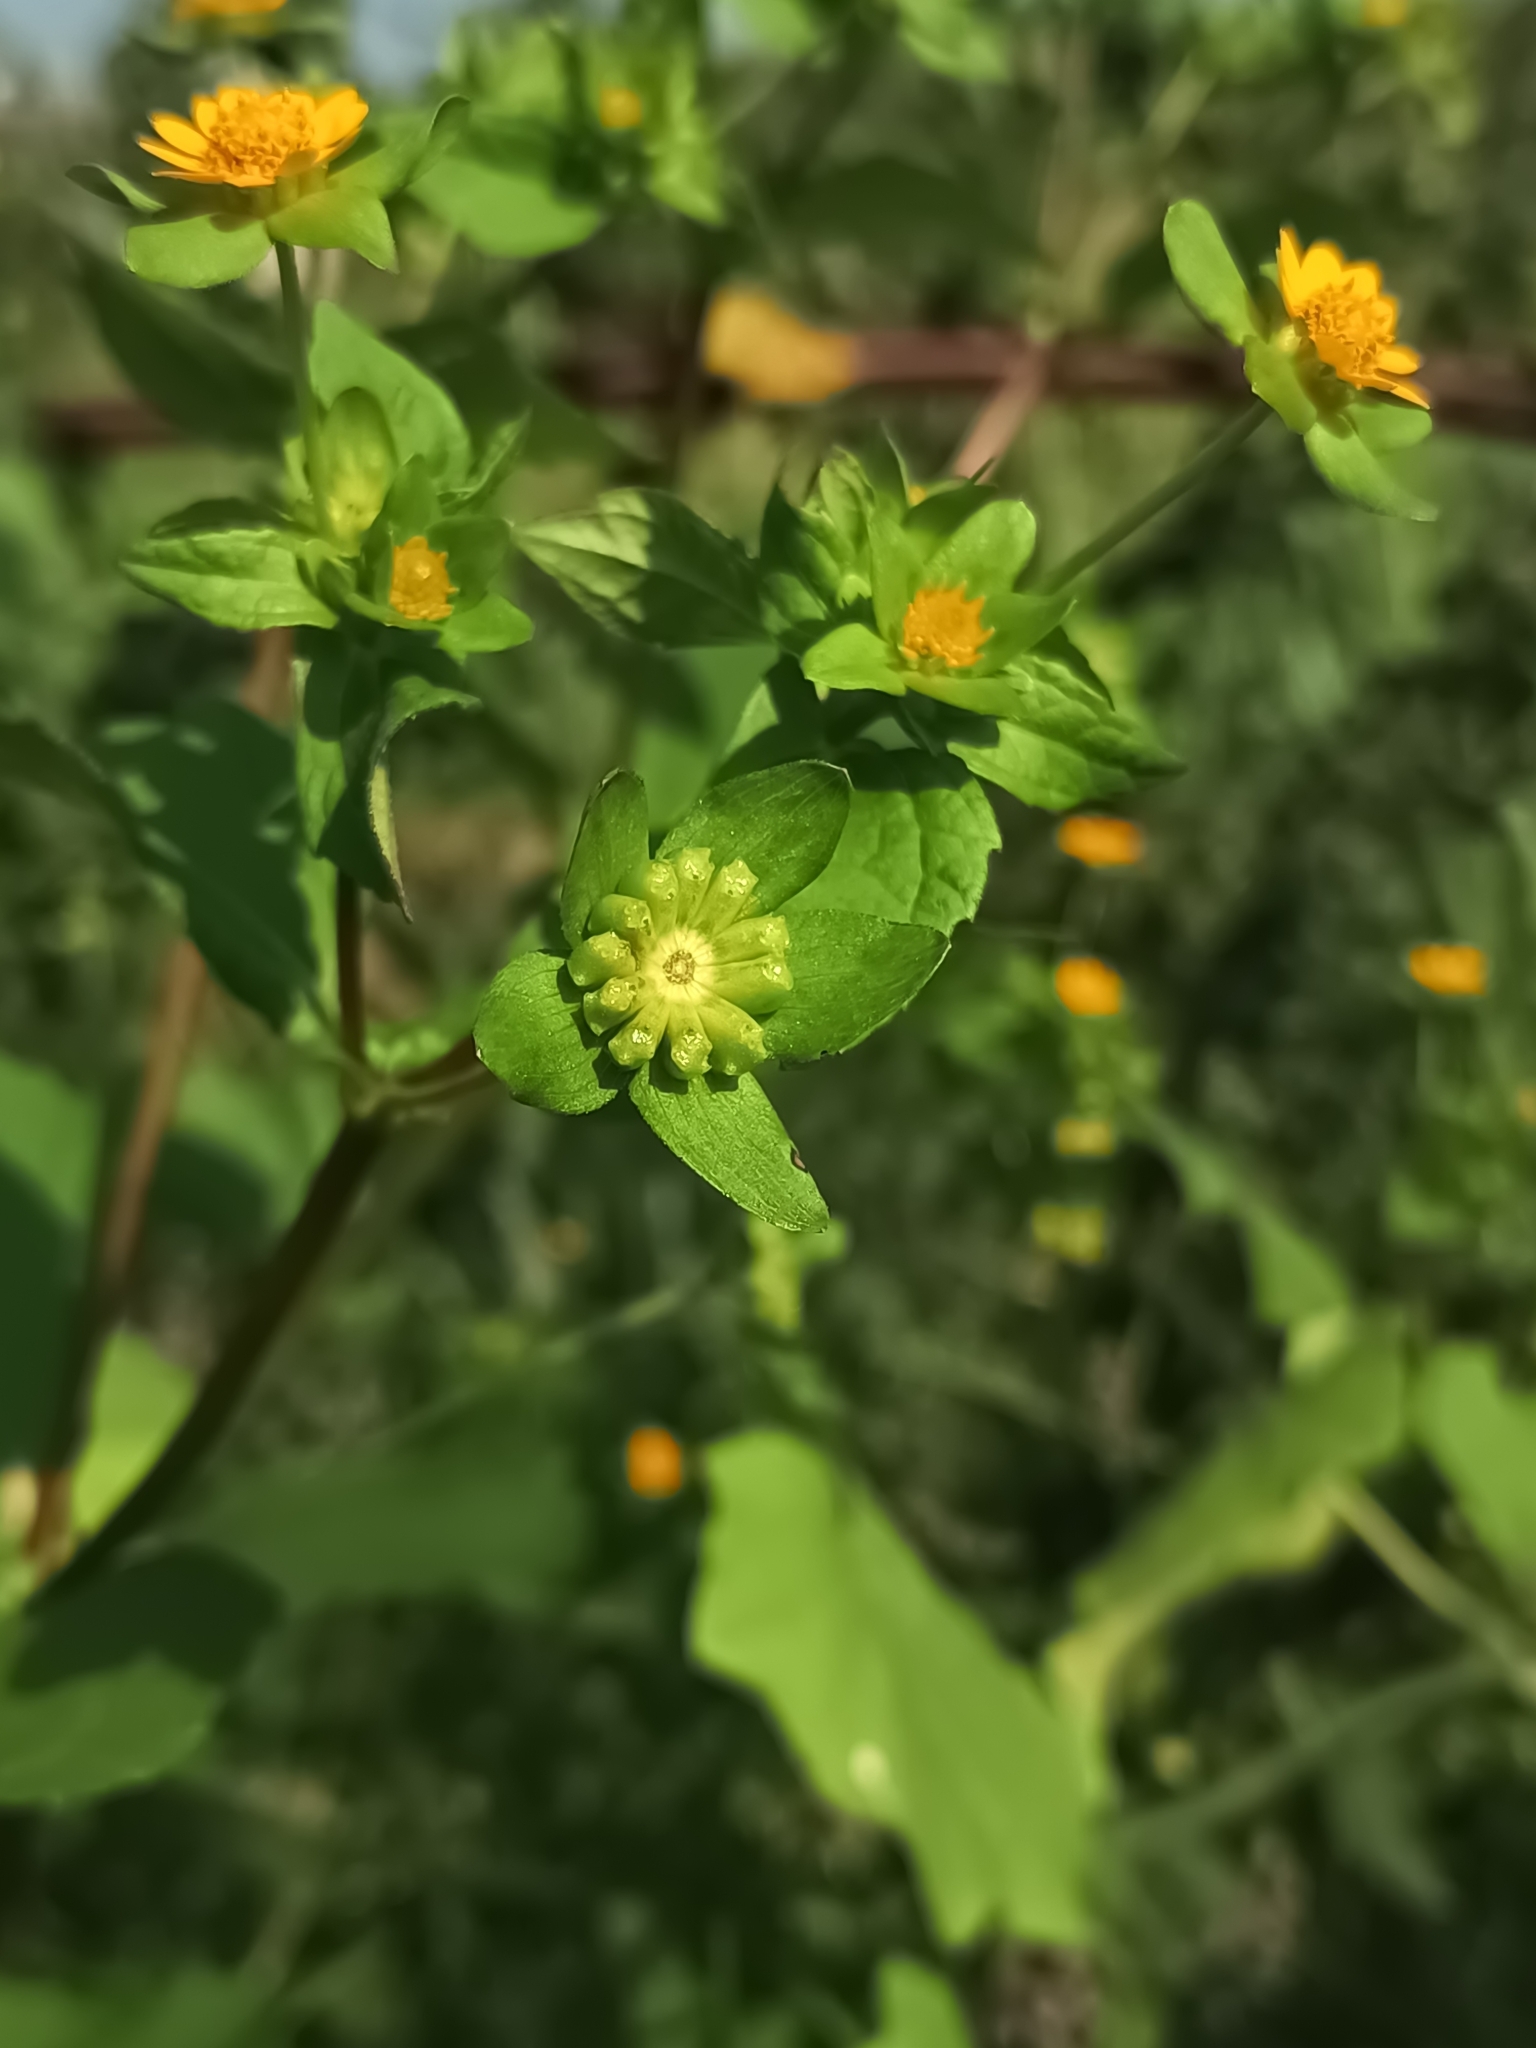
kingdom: Plantae
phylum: Tracheophyta
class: Magnoliopsida
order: Asterales
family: Asteraceae
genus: Melampodium
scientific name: Melampodium perfoliatum
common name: Perfoliate blackfoot
